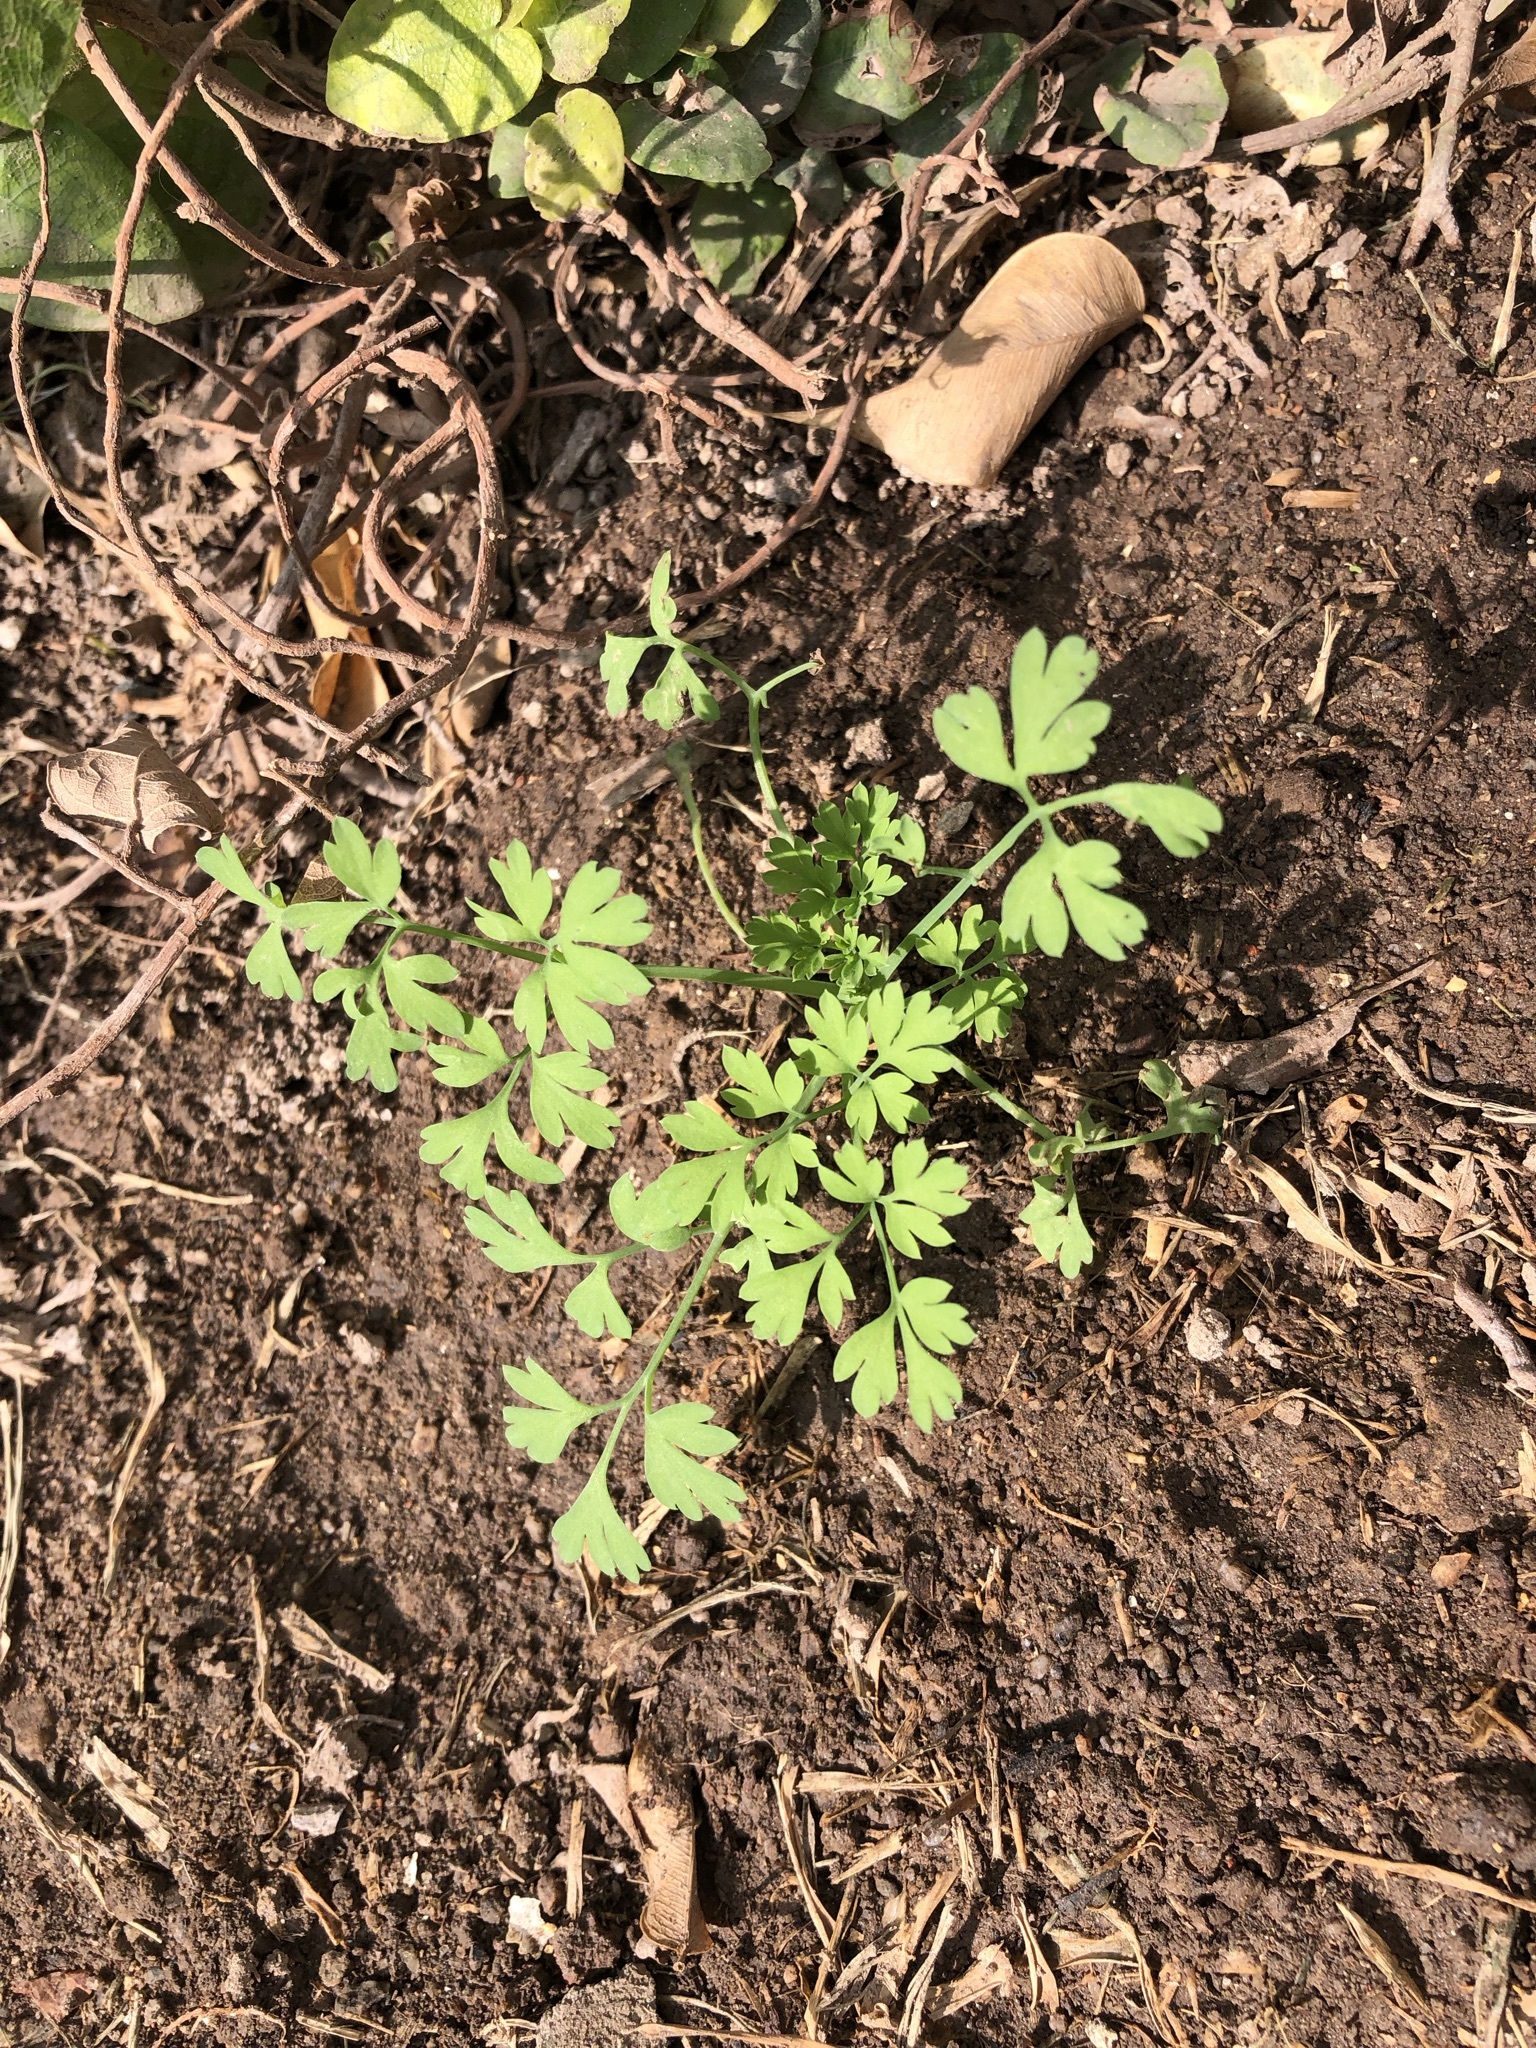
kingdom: Plantae
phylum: Tracheophyta
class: Magnoliopsida
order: Apiales
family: Apiaceae
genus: Coriandrum
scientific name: Coriandrum sativum
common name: Coriander
